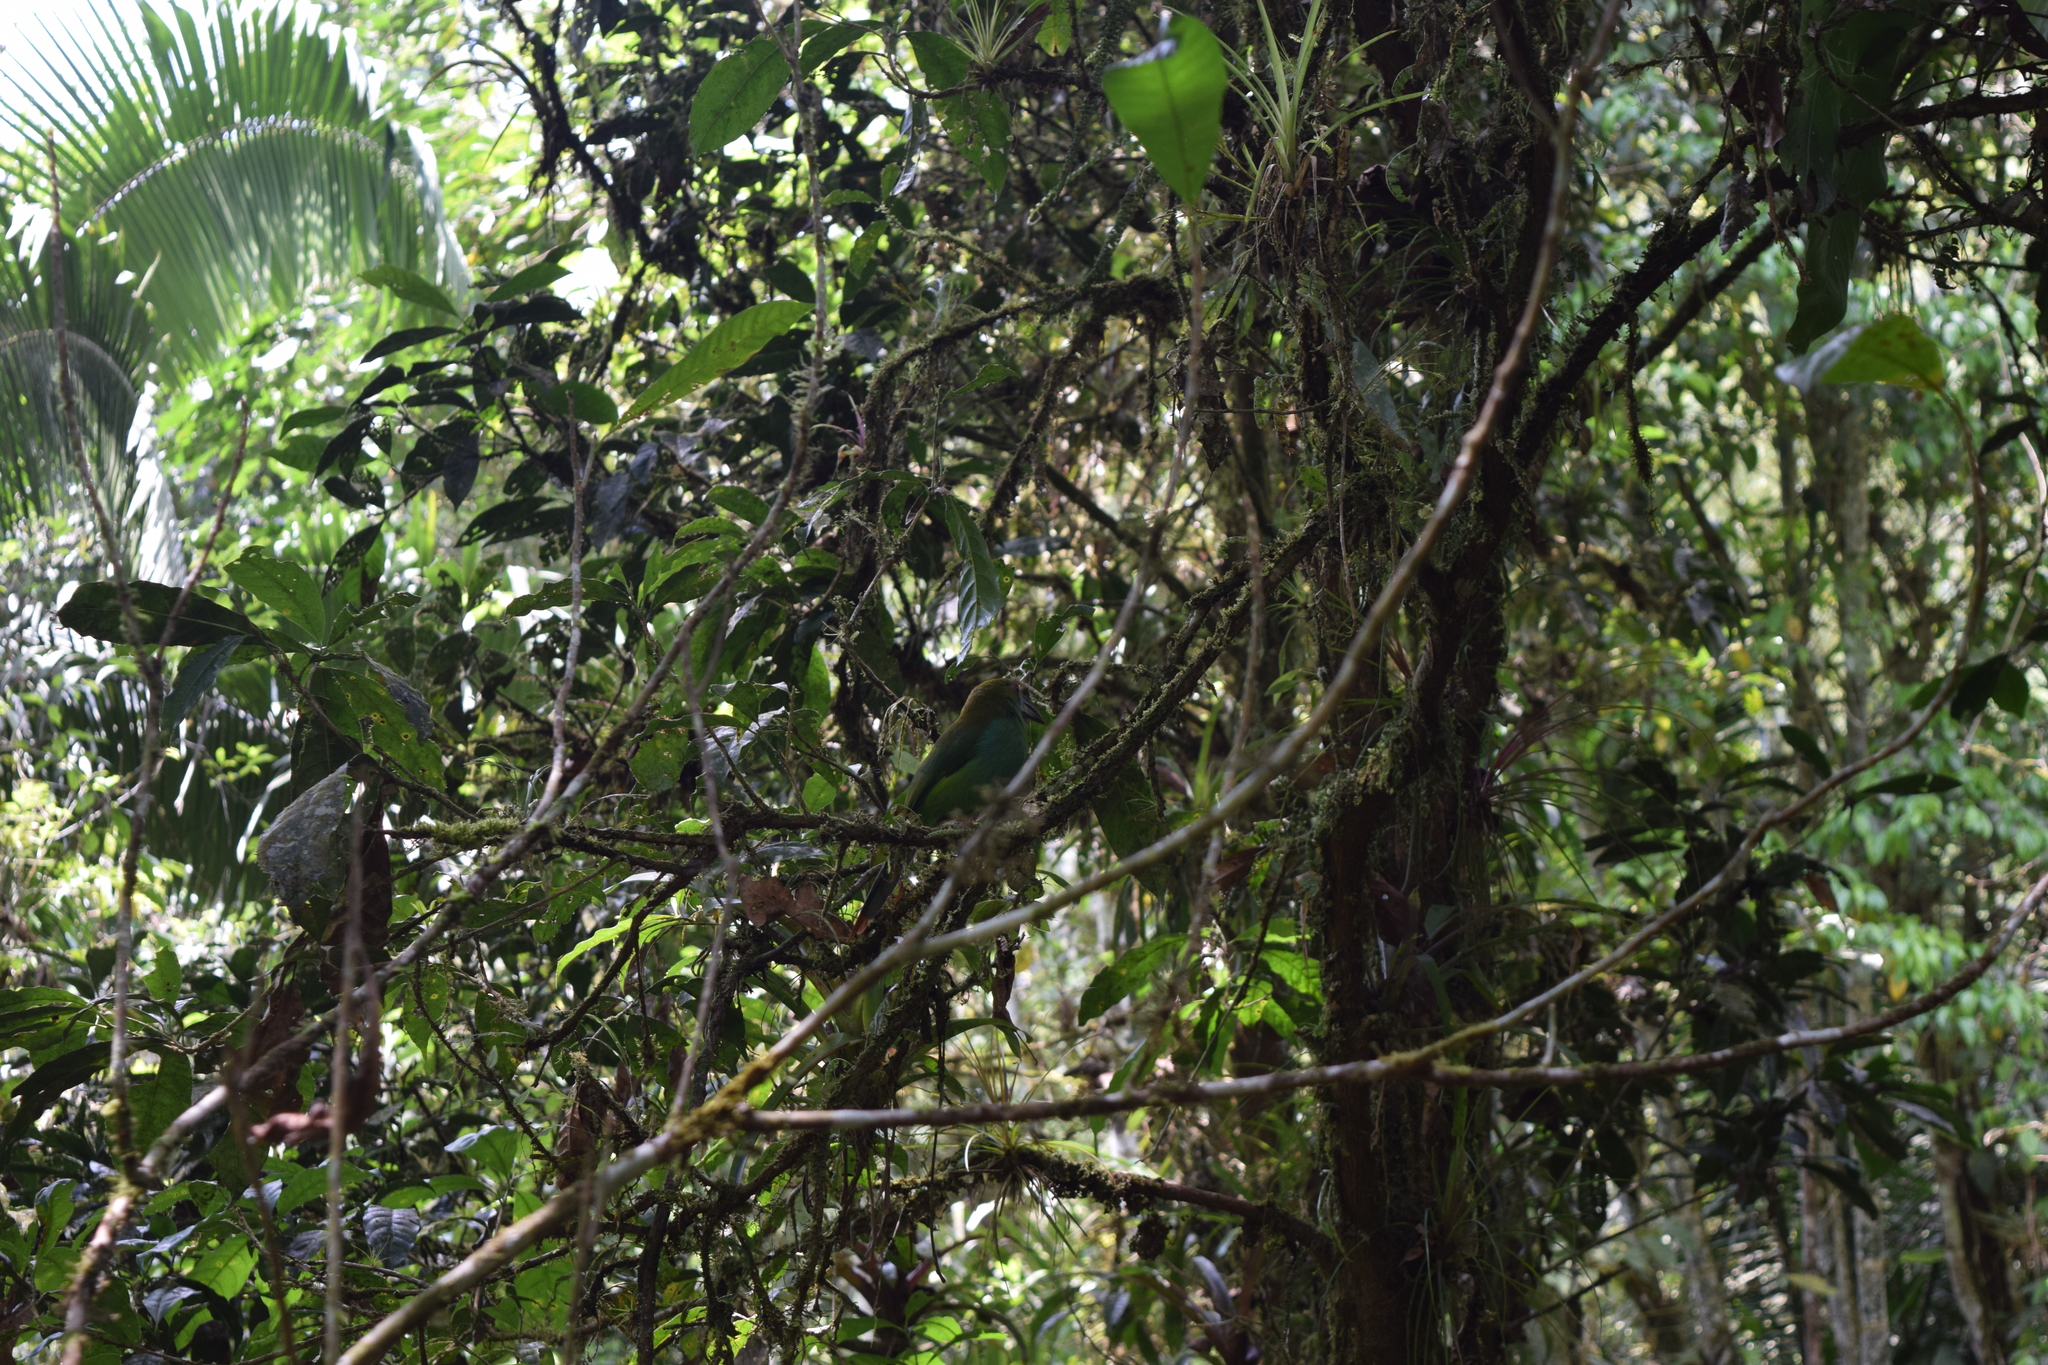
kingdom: Animalia
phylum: Chordata
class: Aves
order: Piciformes
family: Ramphastidae
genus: Aulacorhynchus
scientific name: Aulacorhynchus haematopygus
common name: Crimson-rumped toucanet
